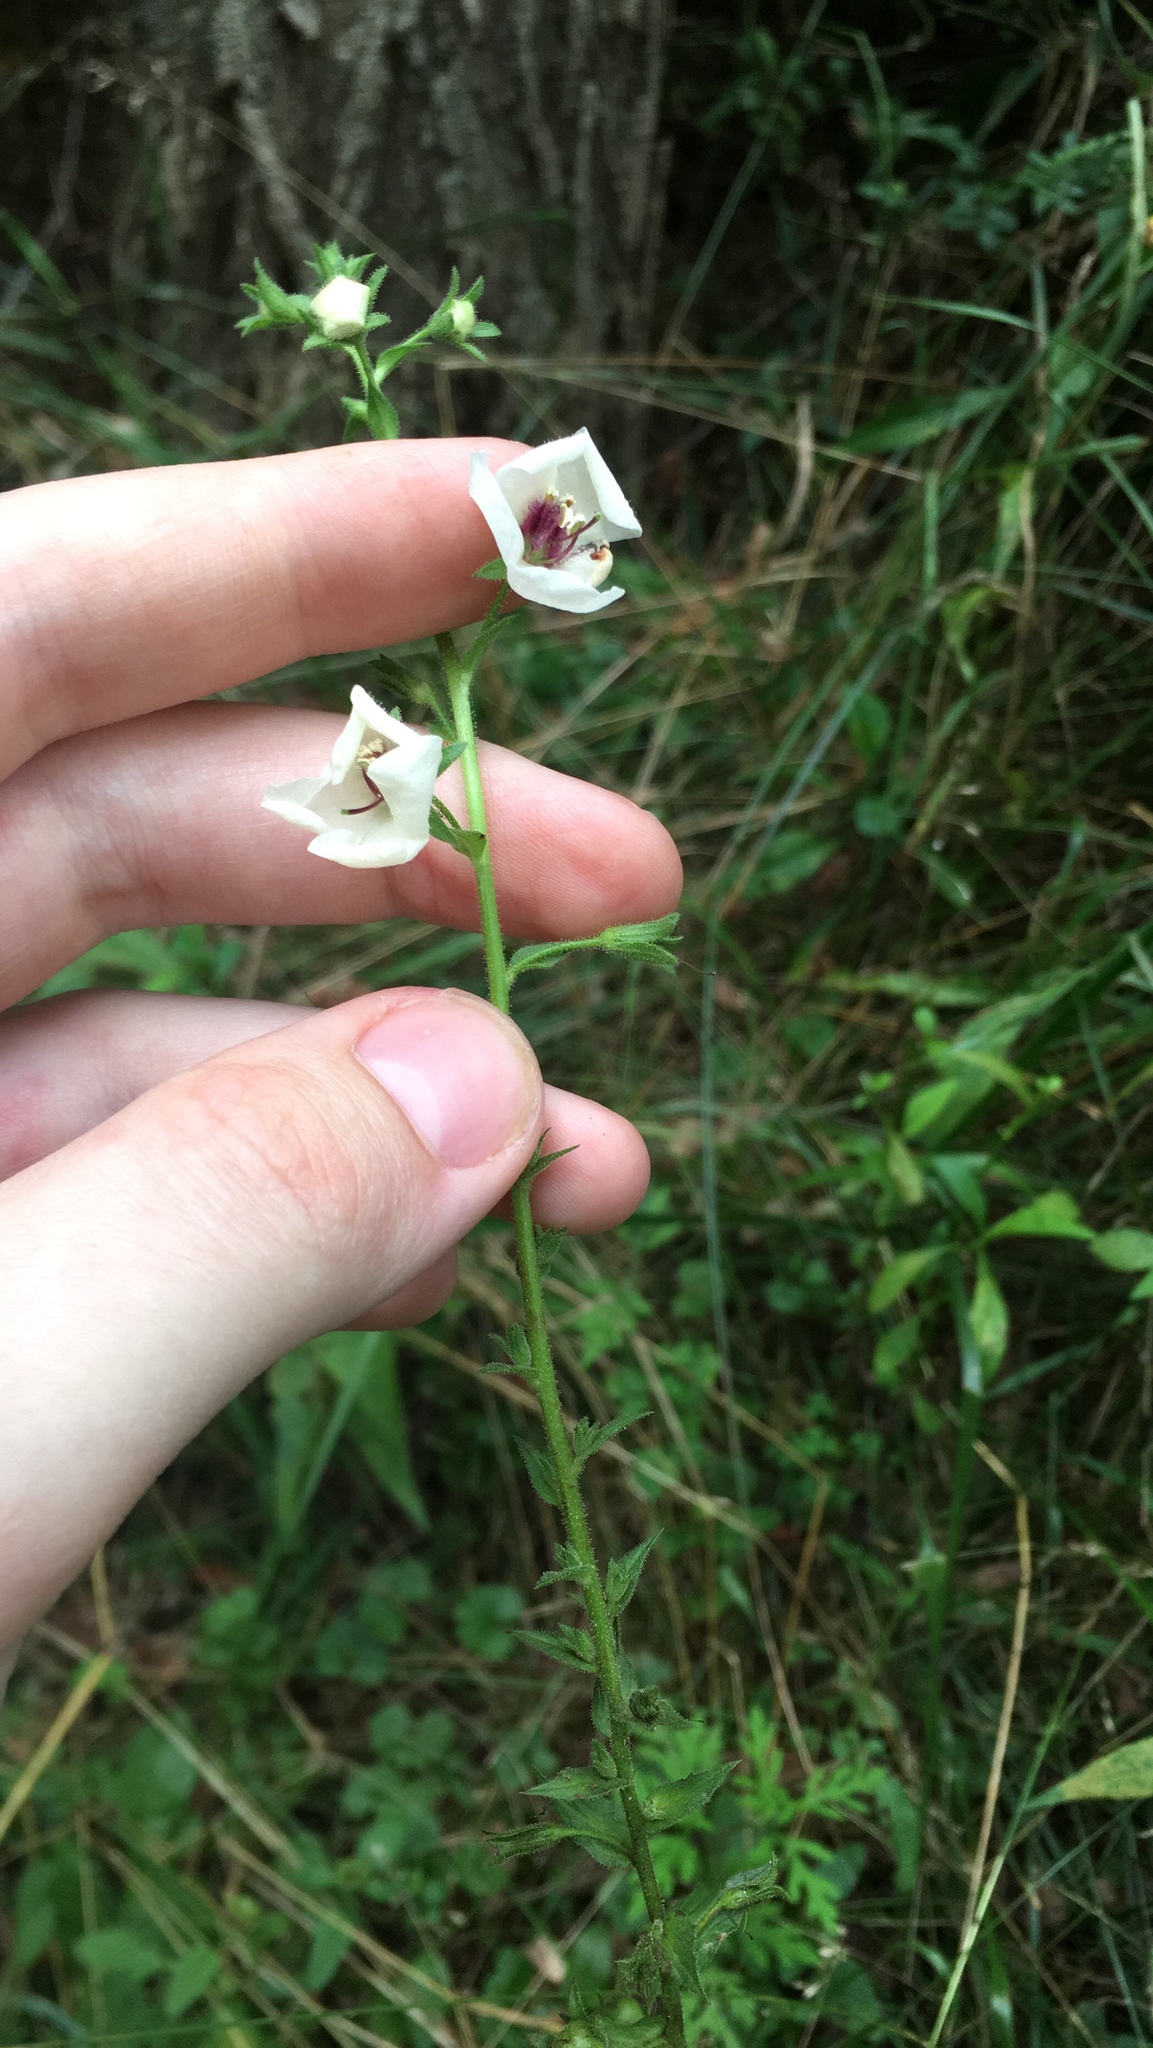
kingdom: Plantae
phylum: Tracheophyta
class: Magnoliopsida
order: Lamiales
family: Scrophulariaceae
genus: Verbascum
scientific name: Verbascum blattaria
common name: Moth mullein
